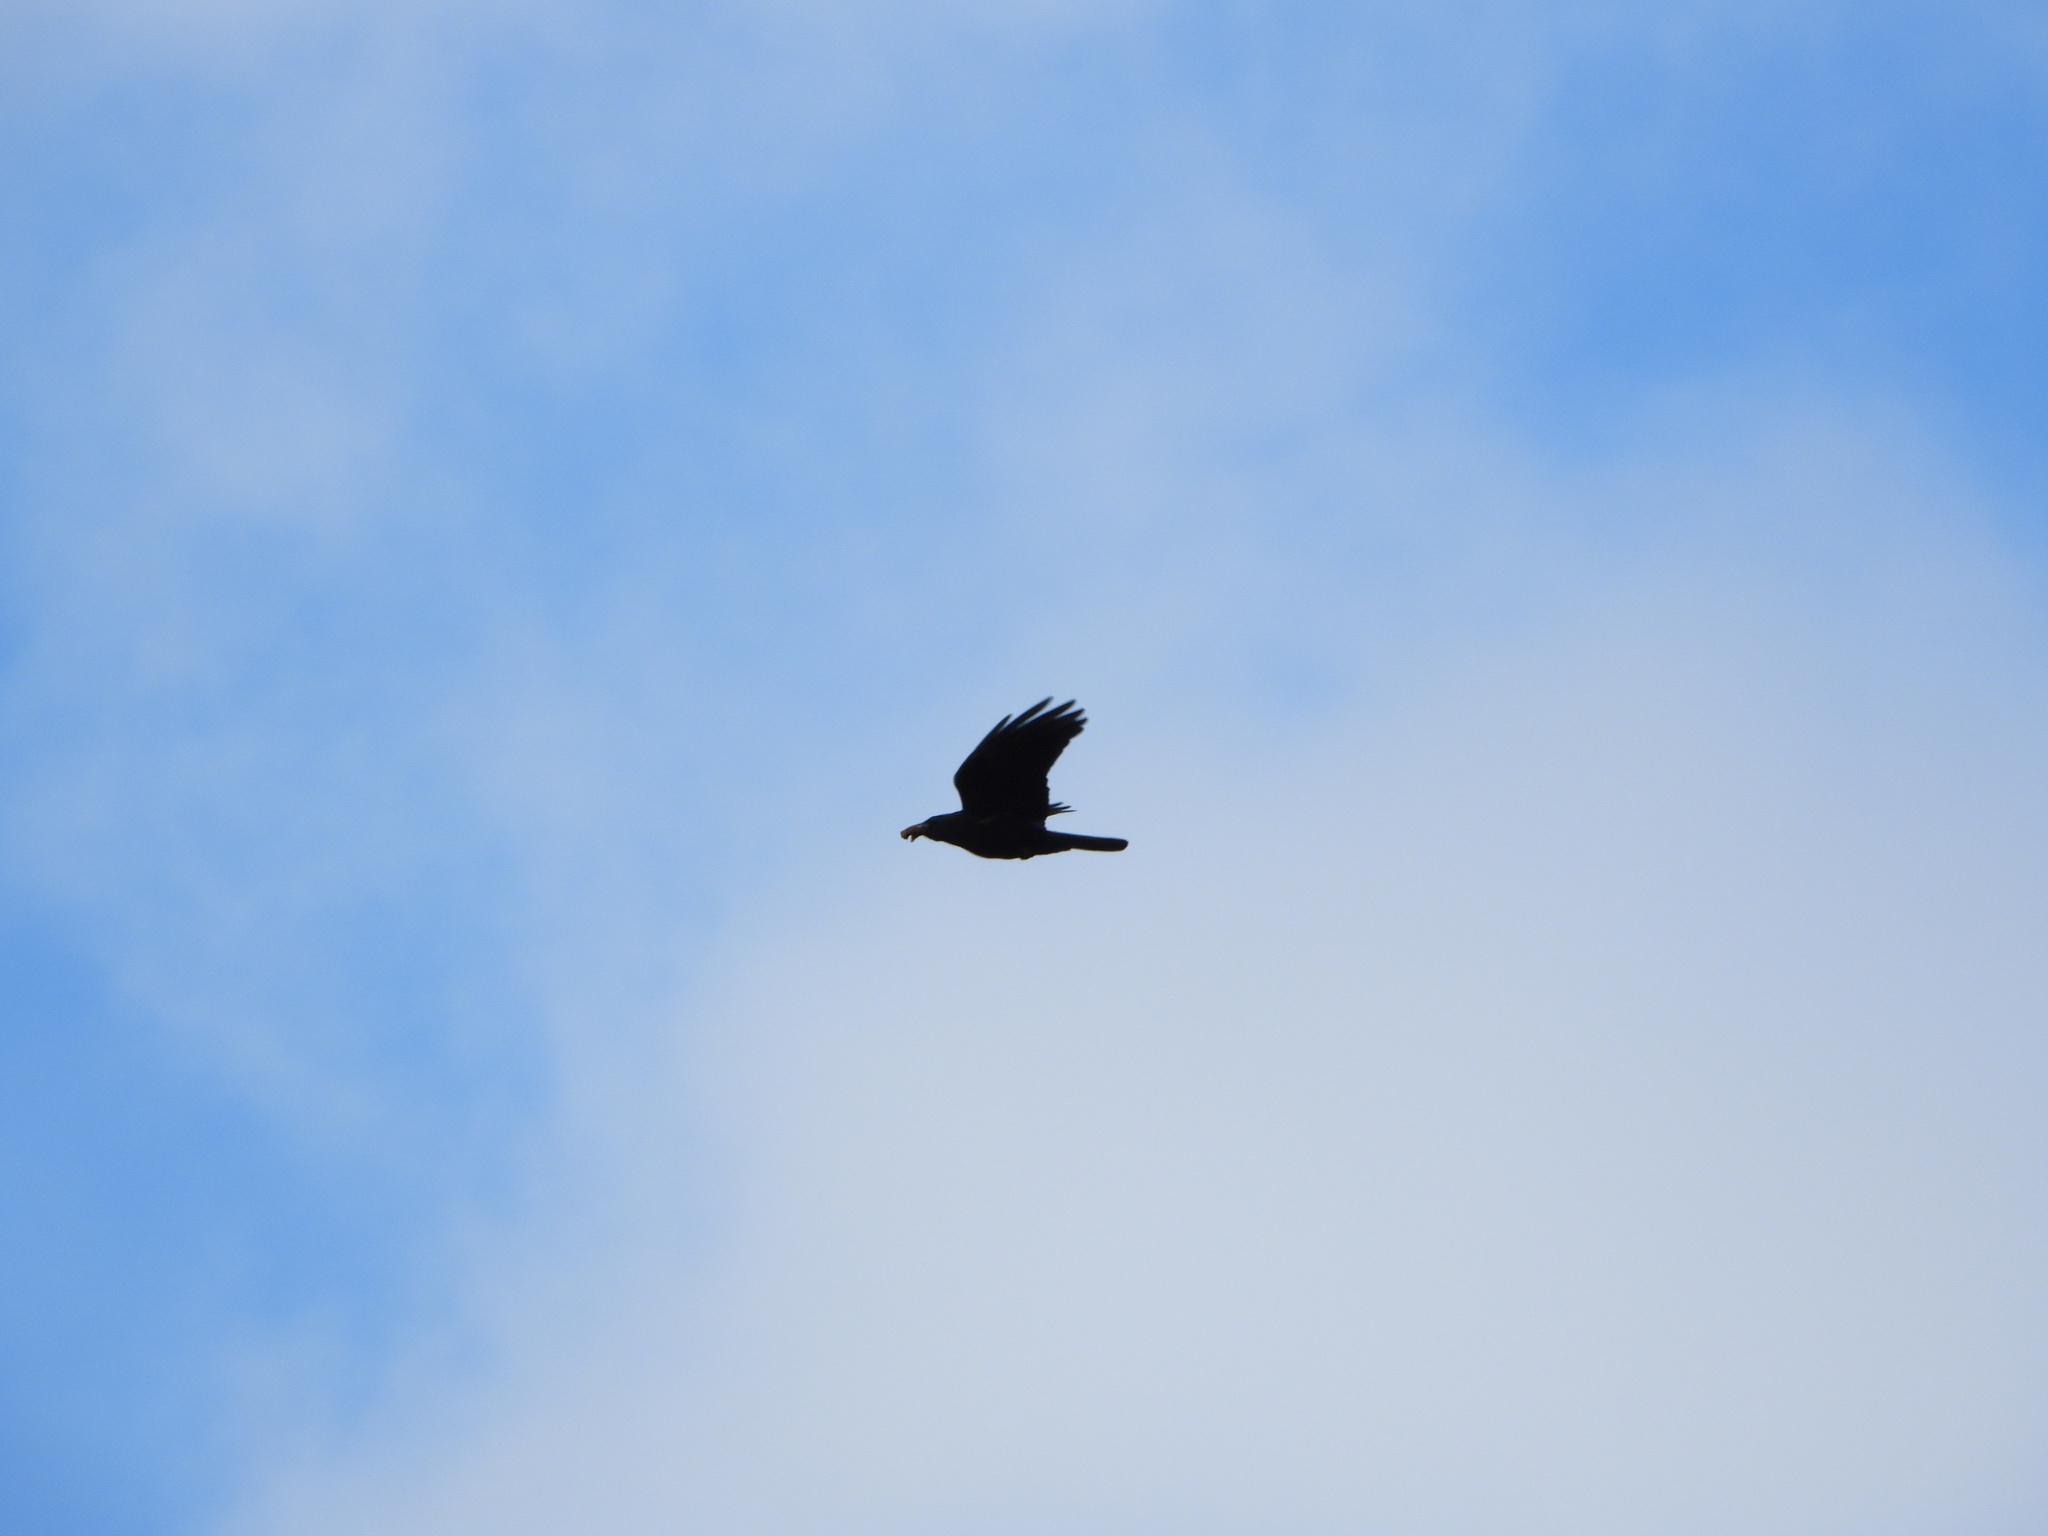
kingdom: Animalia
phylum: Chordata
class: Aves
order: Passeriformes
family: Corvidae
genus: Corvus
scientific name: Corvus brachyrhynchos
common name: American crow
